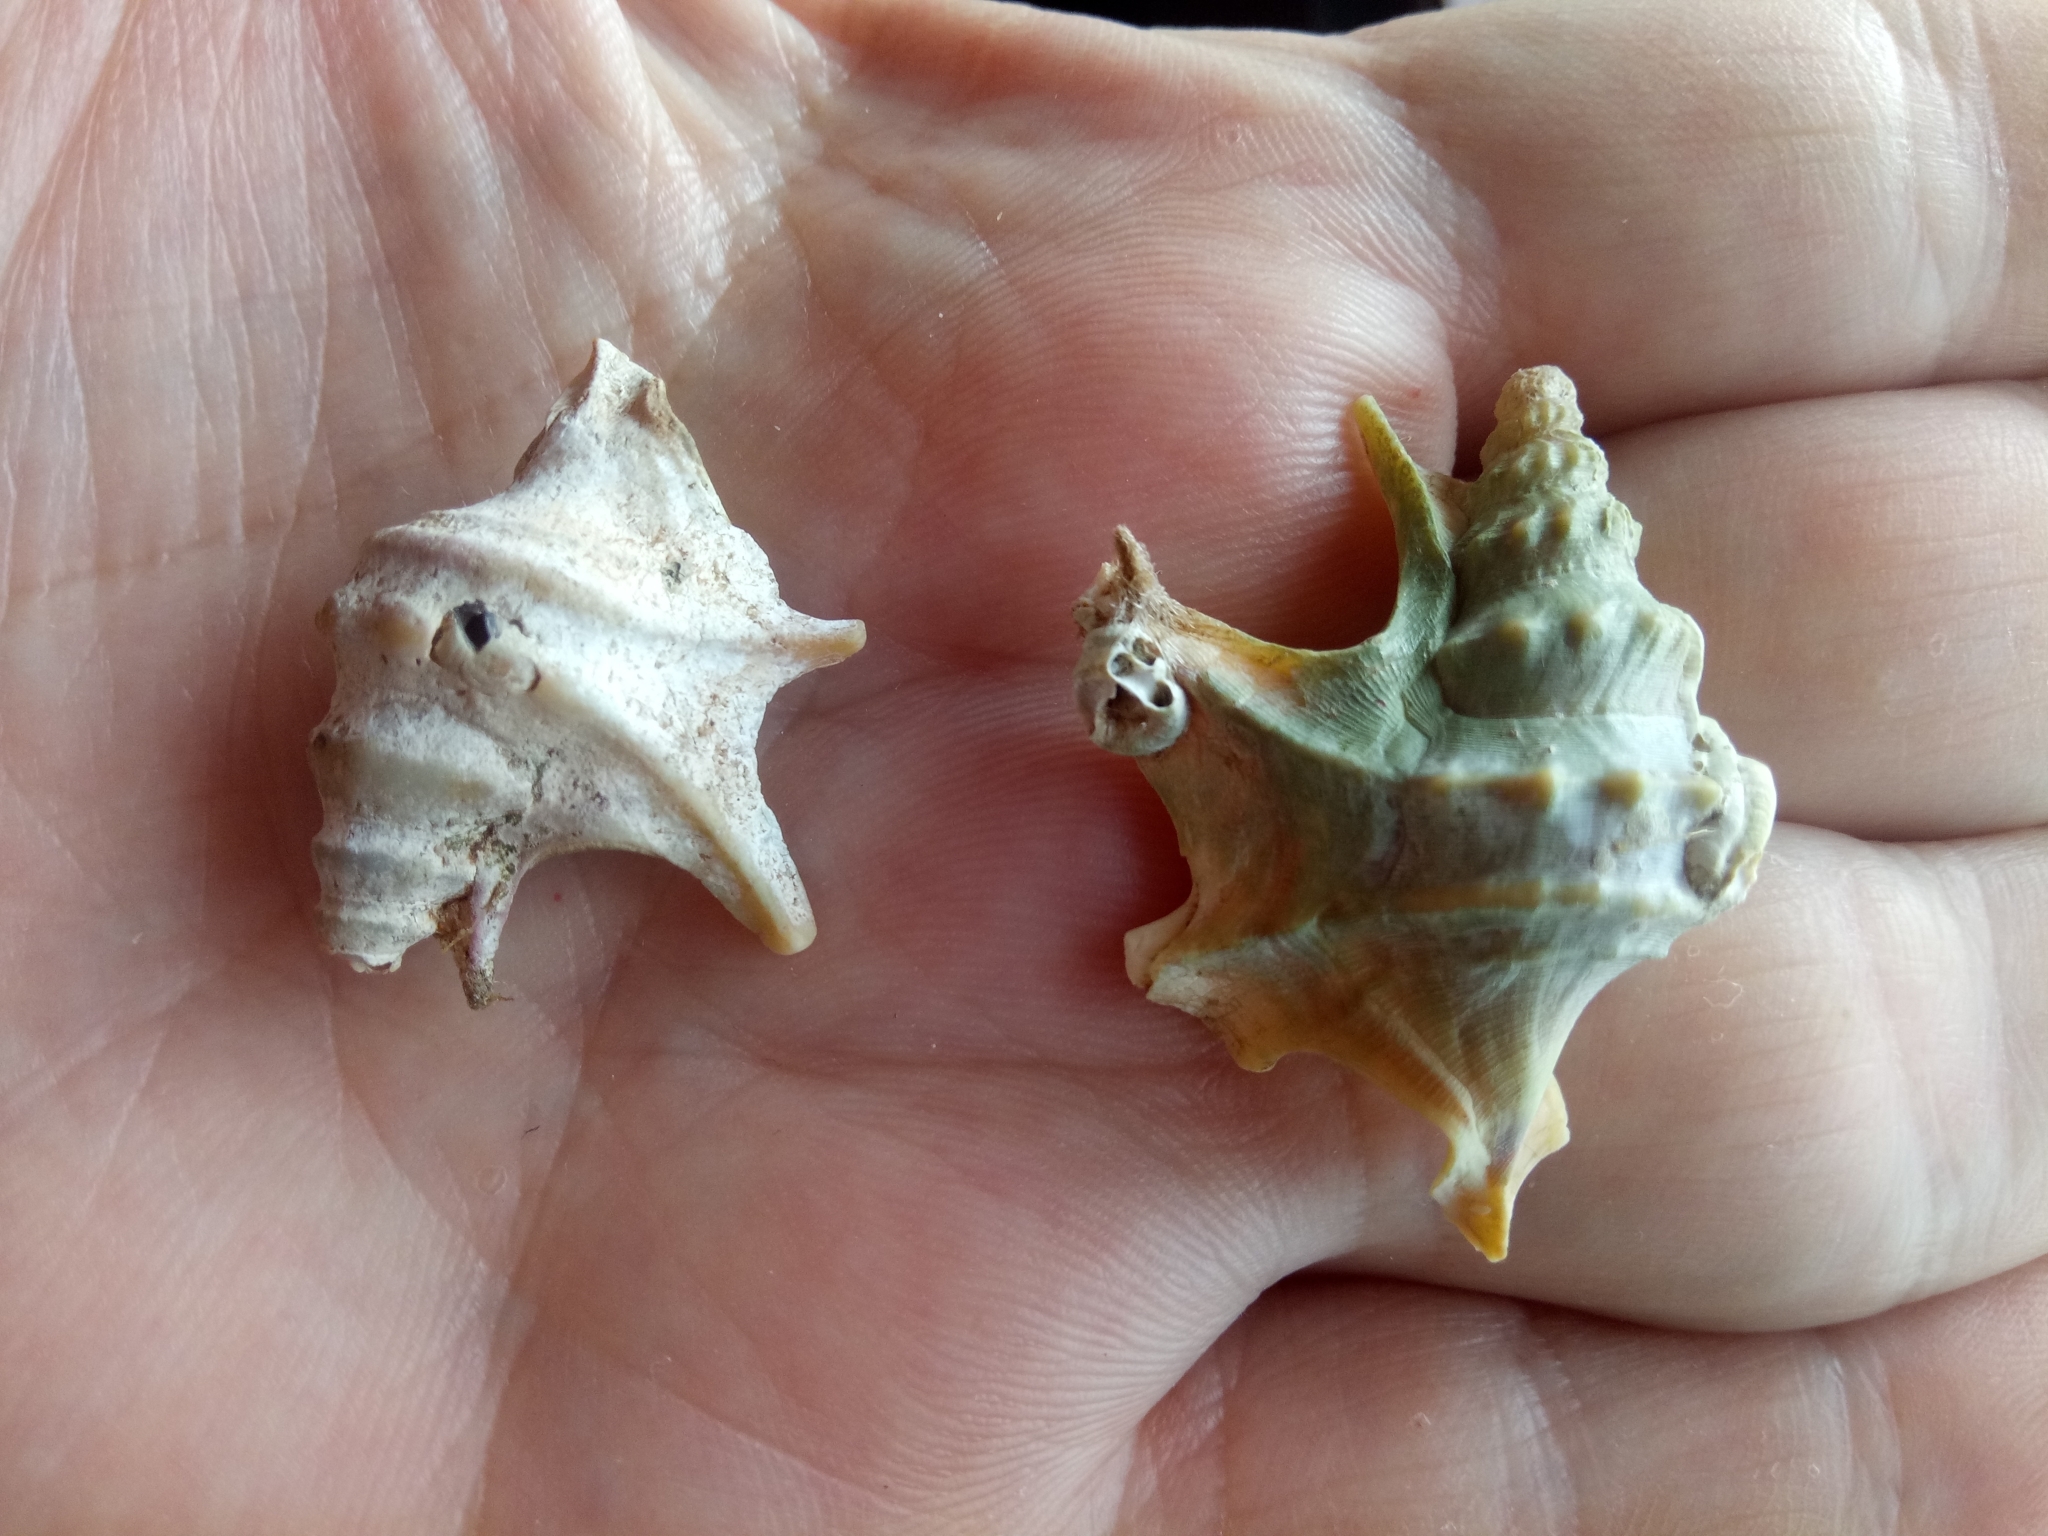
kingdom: Animalia
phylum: Mollusca
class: Gastropoda
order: Littorinimorpha
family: Aporrhaidae
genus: Aporrhais
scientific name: Aporrhais pespelecani
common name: Common pelican’s foot
